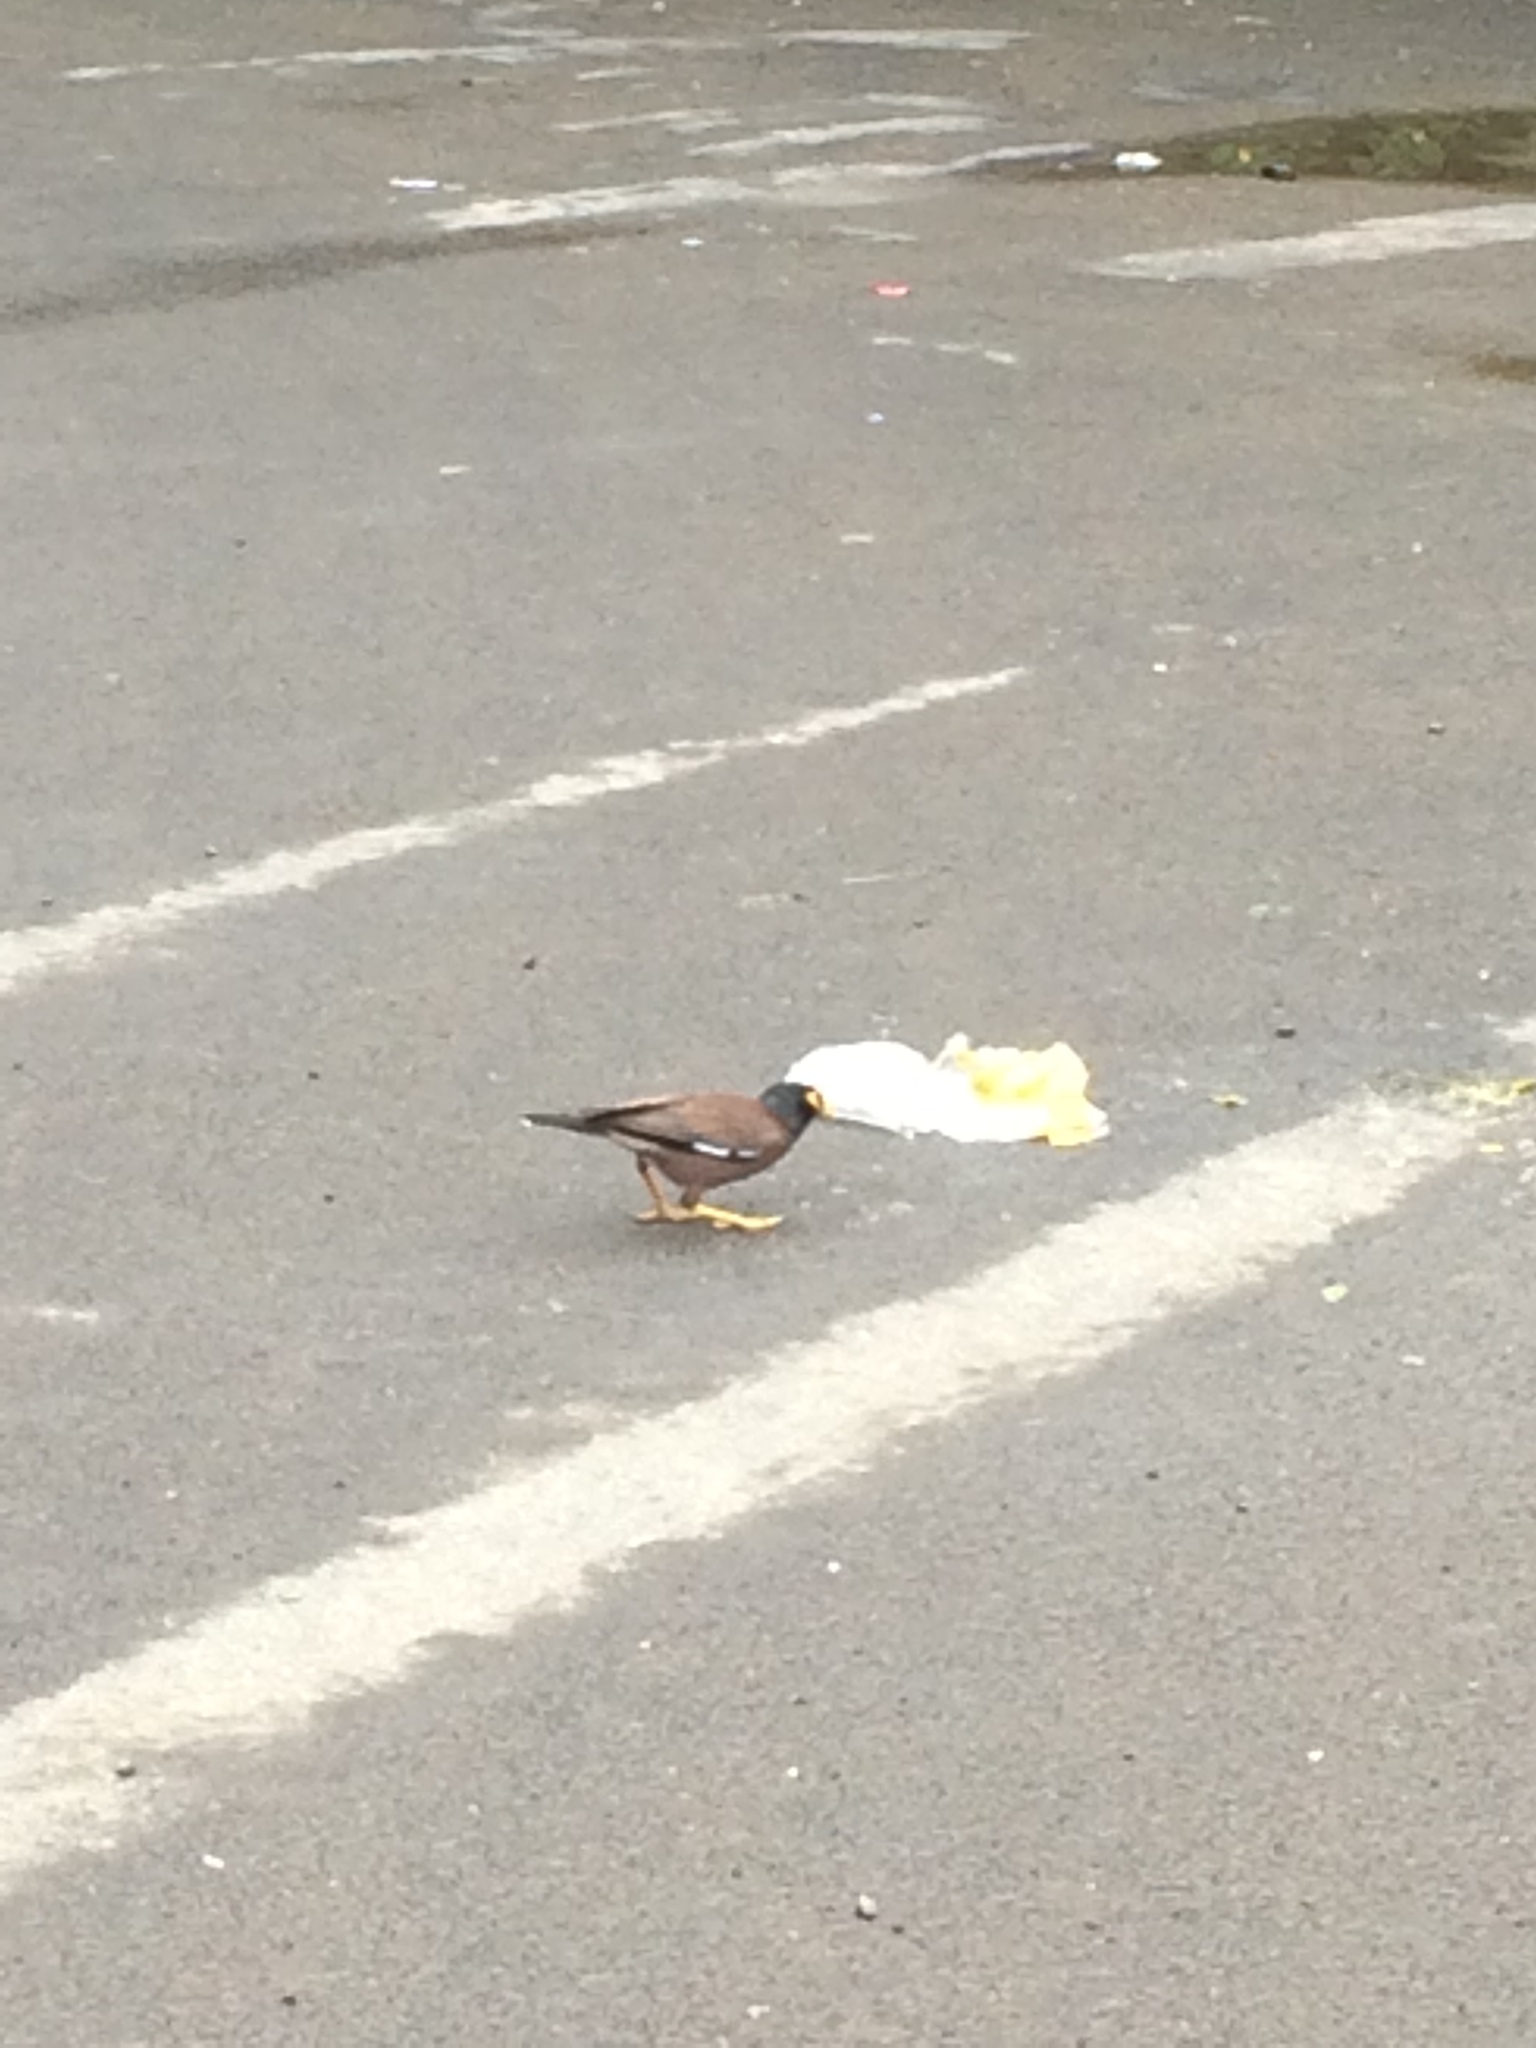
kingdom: Animalia
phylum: Chordata
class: Aves
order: Passeriformes
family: Sturnidae
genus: Acridotheres
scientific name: Acridotheres tristis
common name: Common myna
